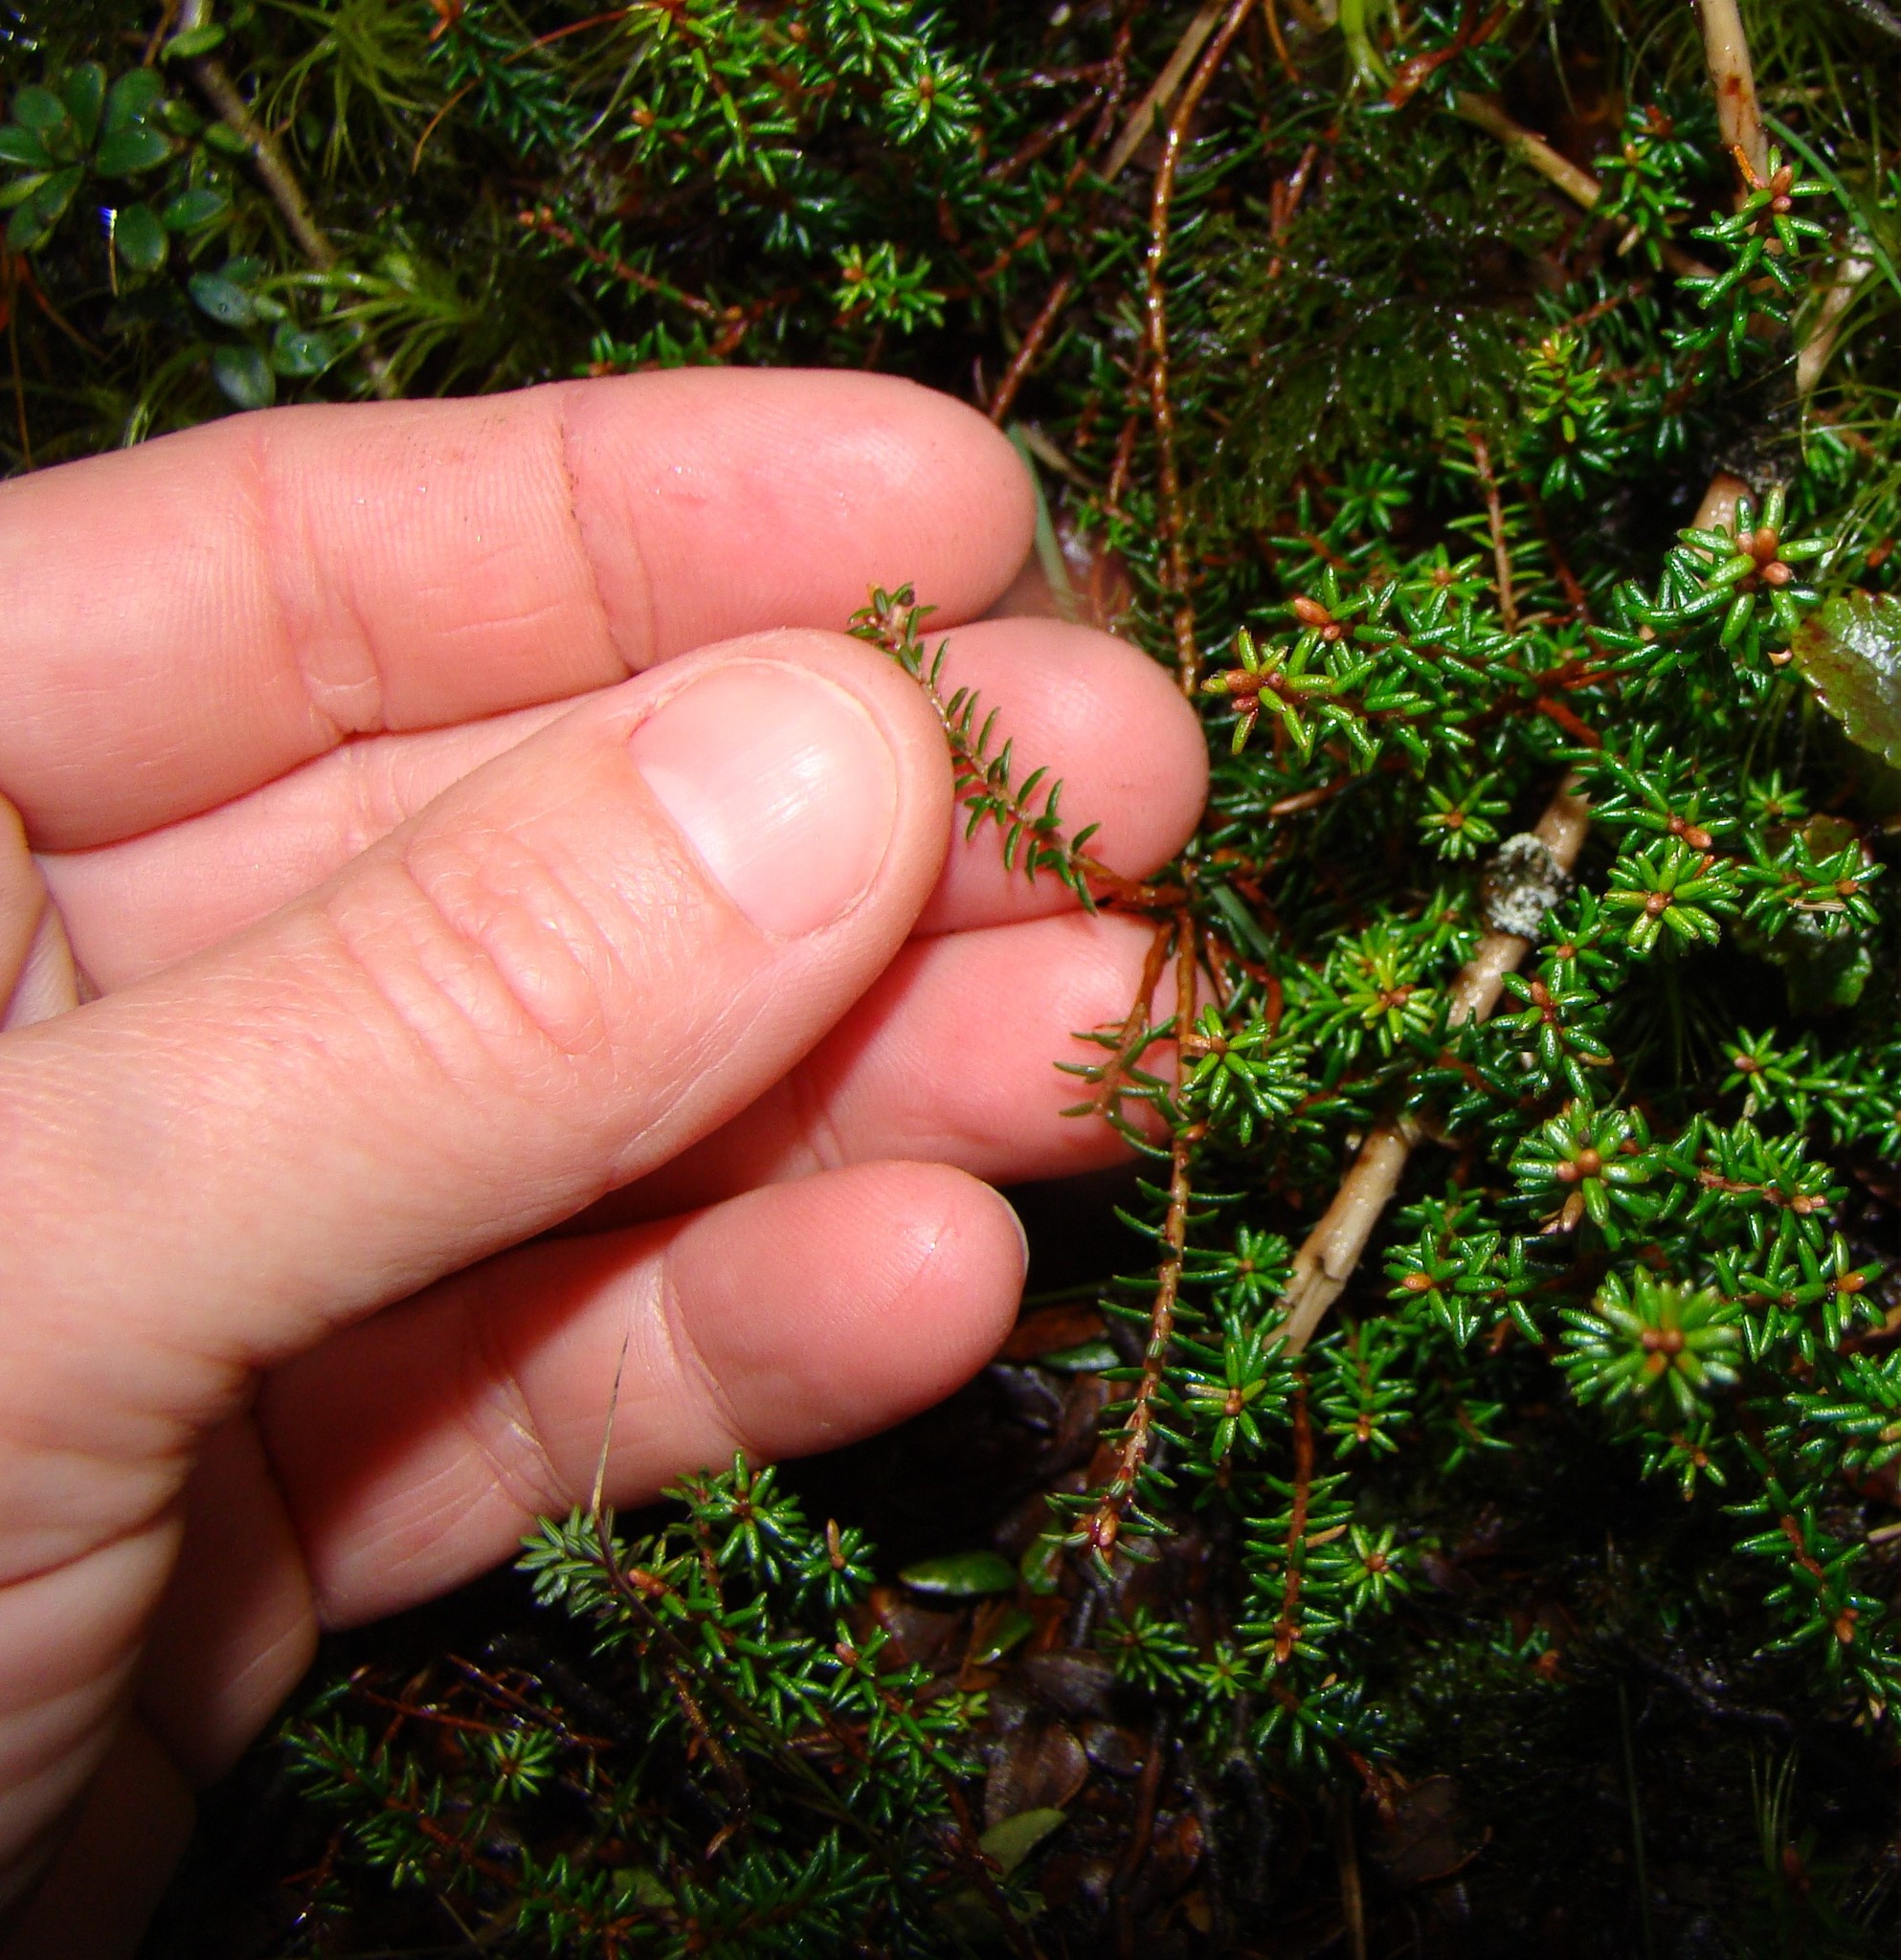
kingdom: Plantae
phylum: Tracheophyta
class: Magnoliopsida
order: Ericales
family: Ericaceae
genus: Androstoma
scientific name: Androstoma empetrifolia
